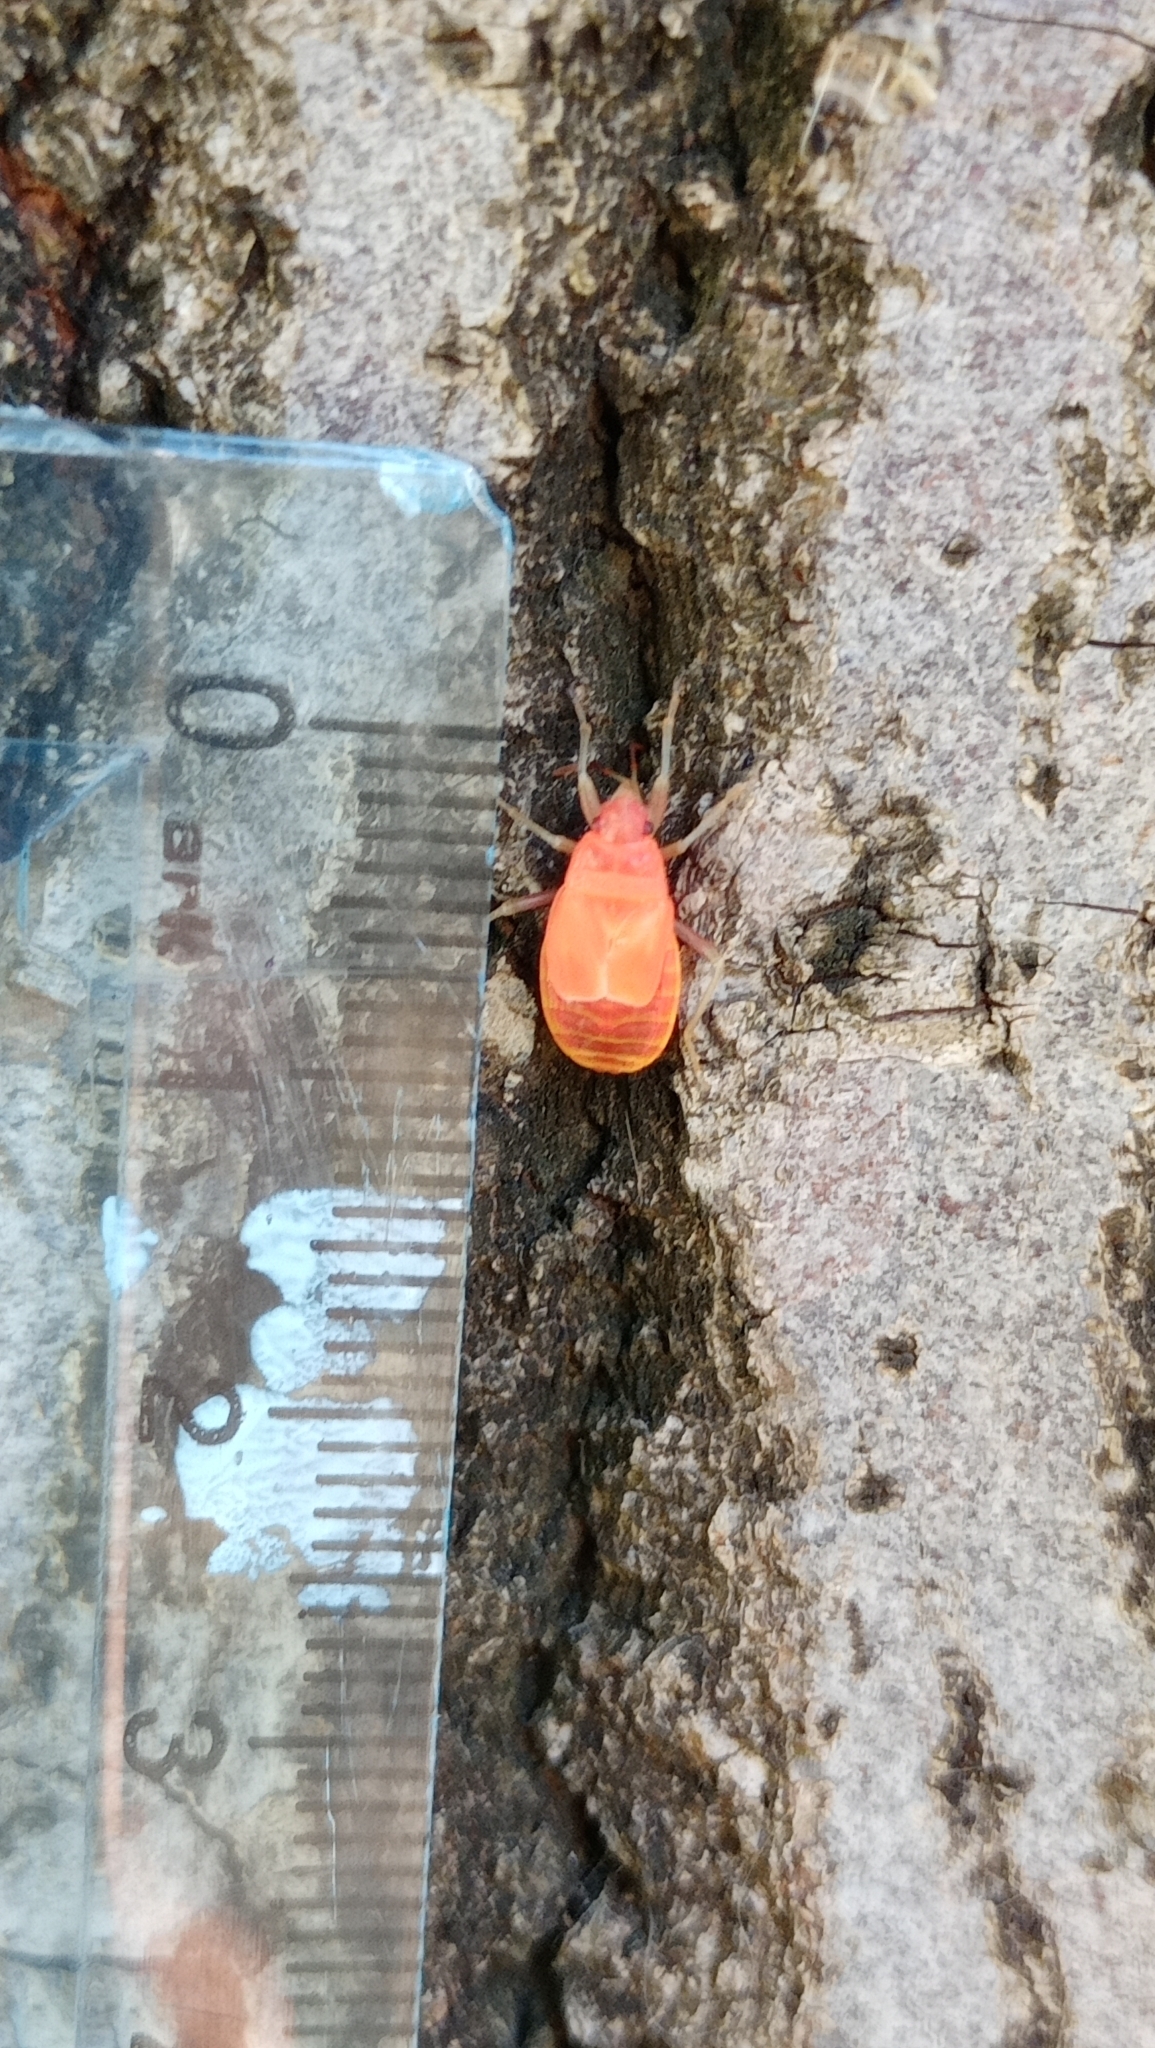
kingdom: Animalia
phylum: Arthropoda
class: Insecta
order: Hemiptera
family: Pyrrhocoridae
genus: Pyrrhocoris
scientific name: Pyrrhocoris apterus
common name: Firebug
